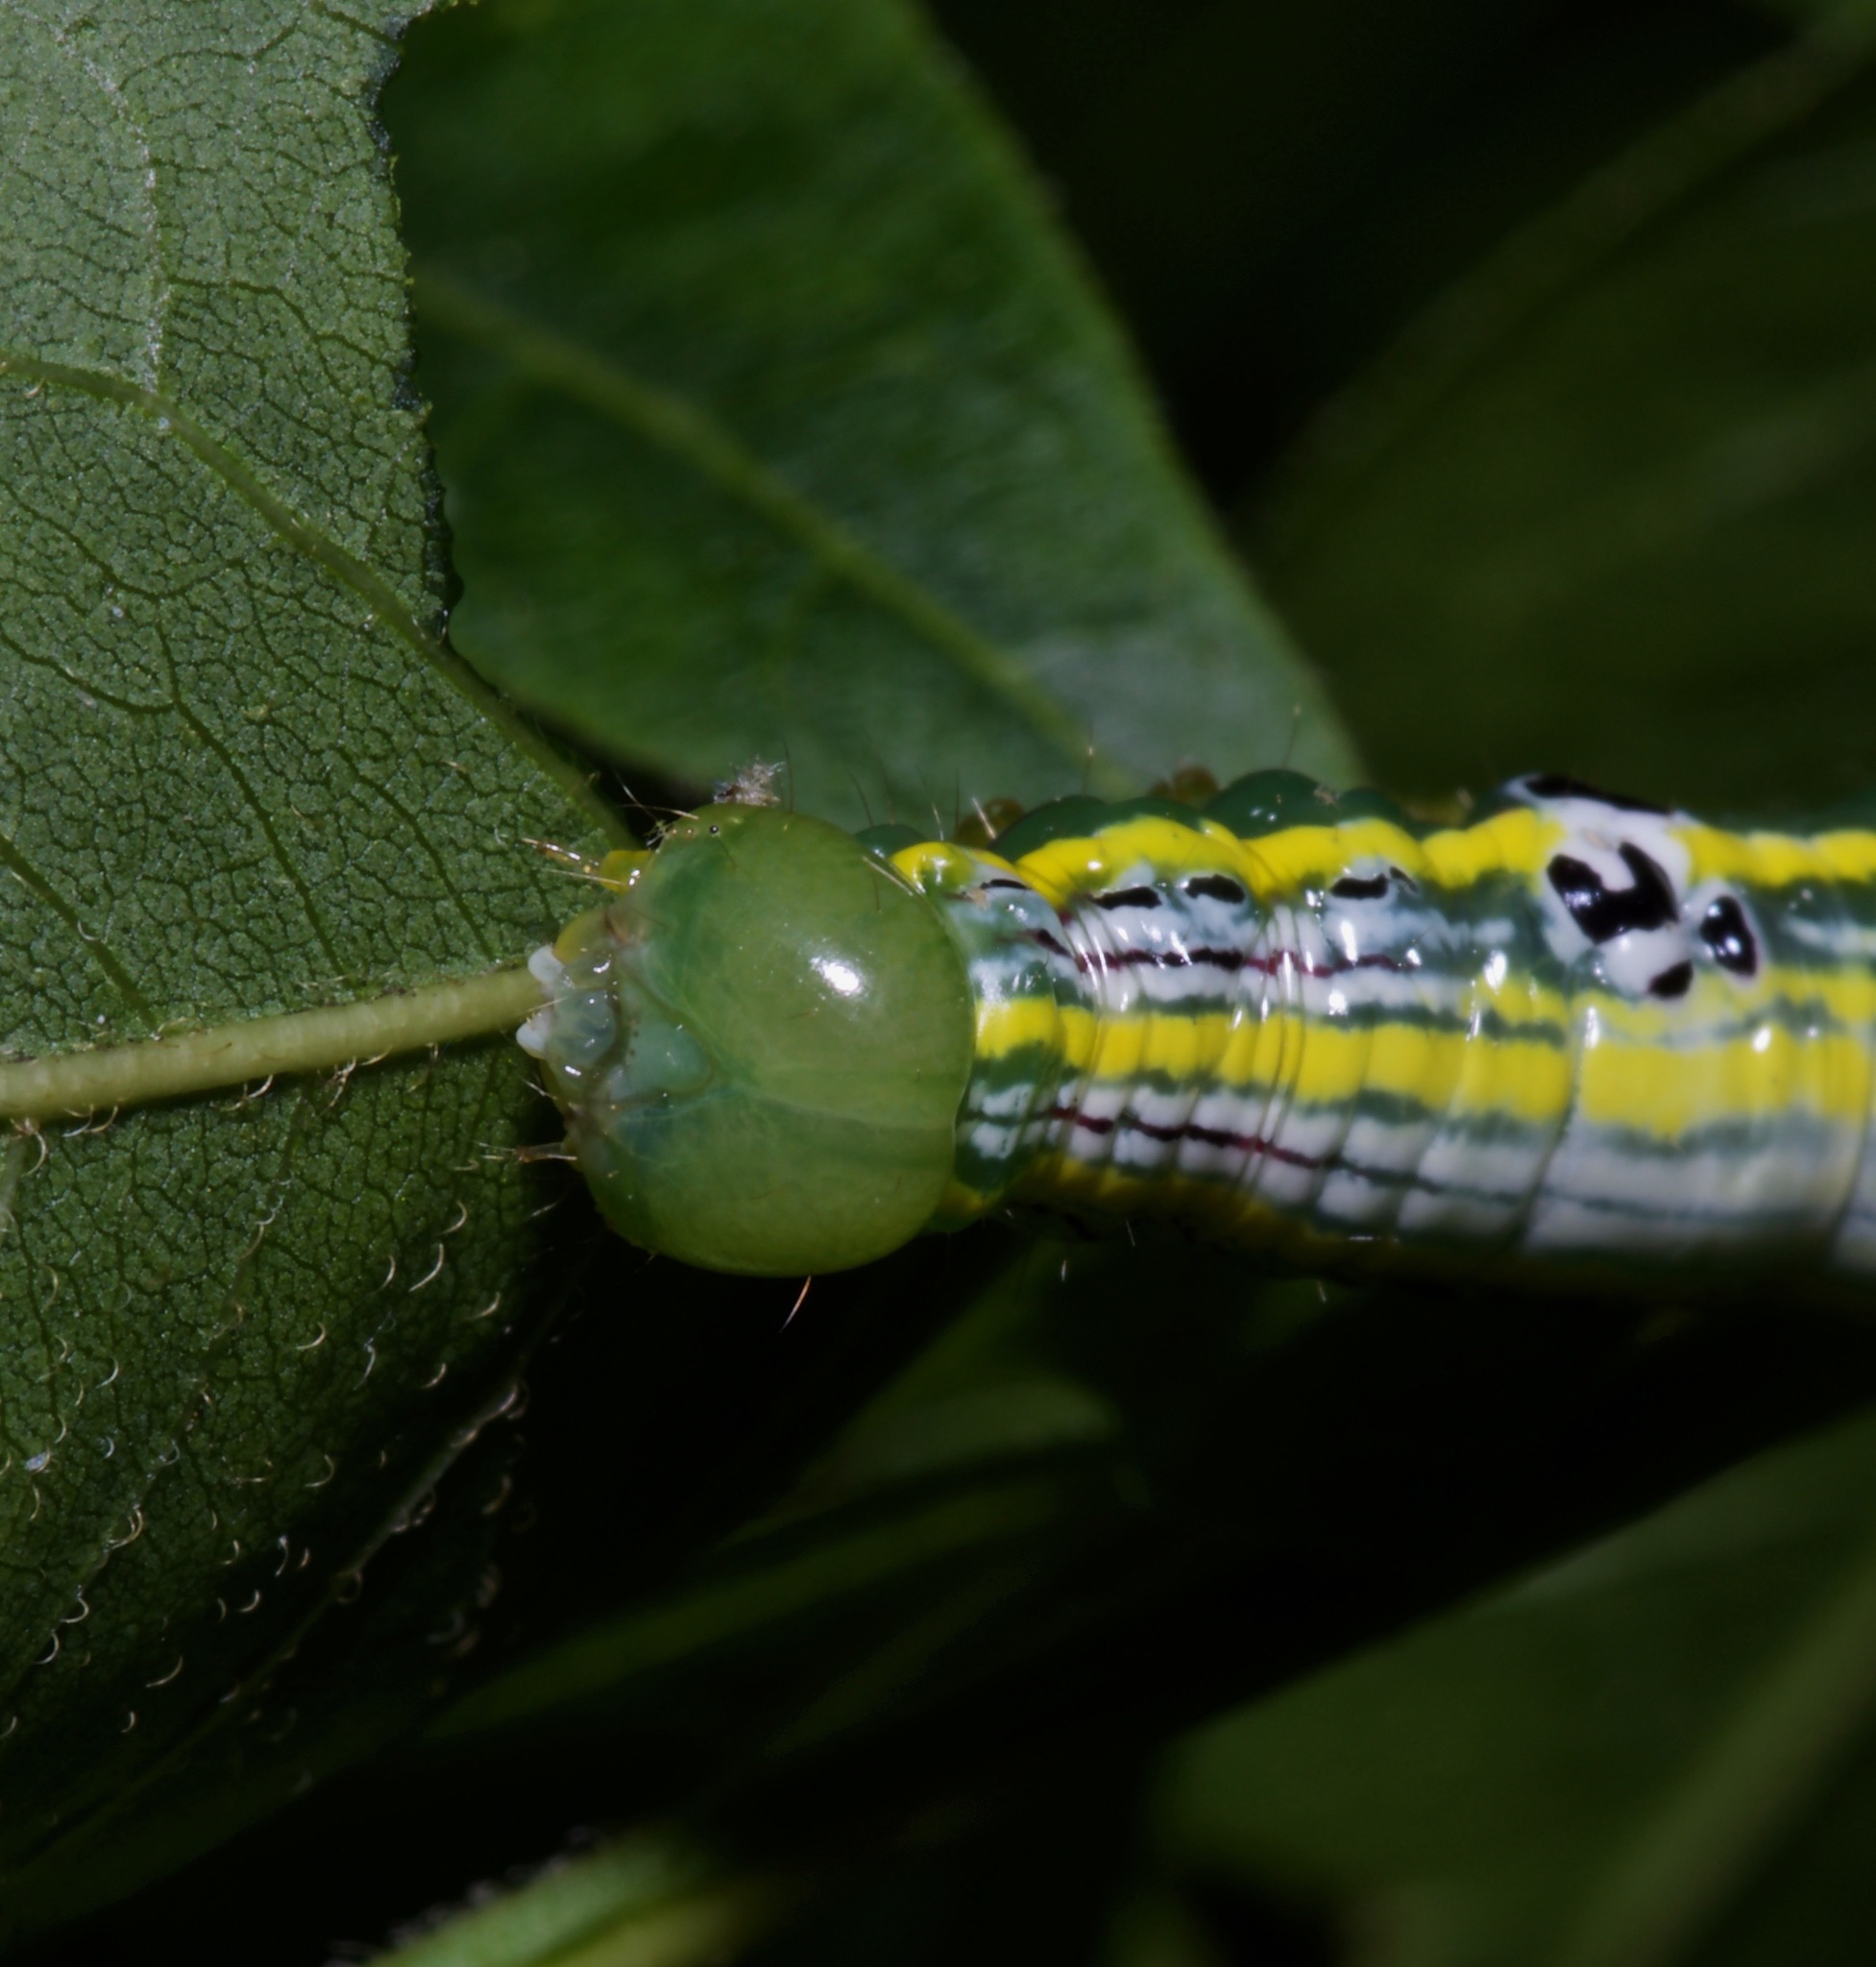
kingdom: Animalia
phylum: Arthropoda
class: Insecta
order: Lepidoptera
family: Notodontidae
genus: Elasmia
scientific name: Elasmia packardii
